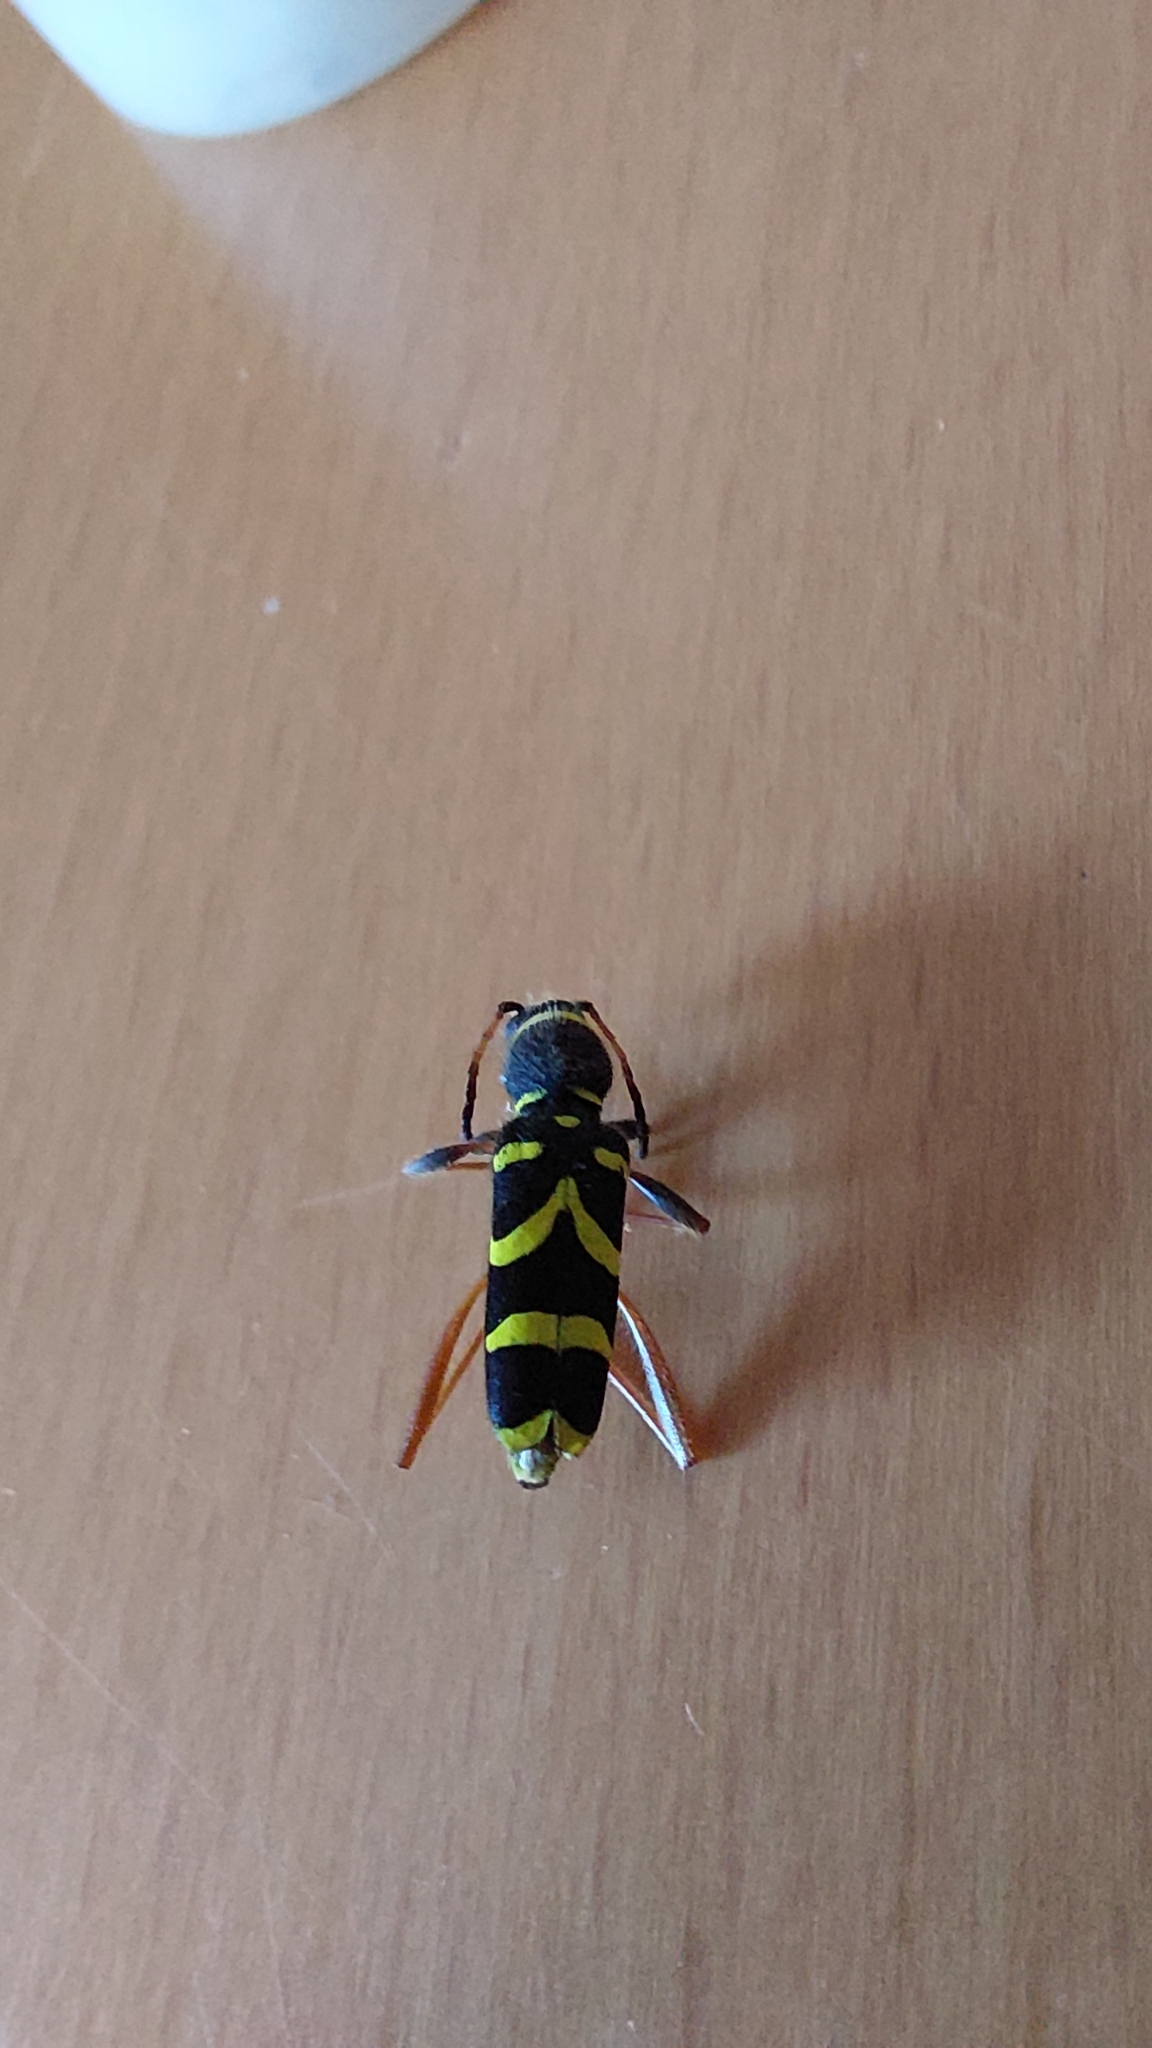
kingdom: Animalia
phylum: Arthropoda
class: Insecta
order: Coleoptera
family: Cerambycidae
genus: Clytus
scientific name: Clytus arietis
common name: Wasp beetle
